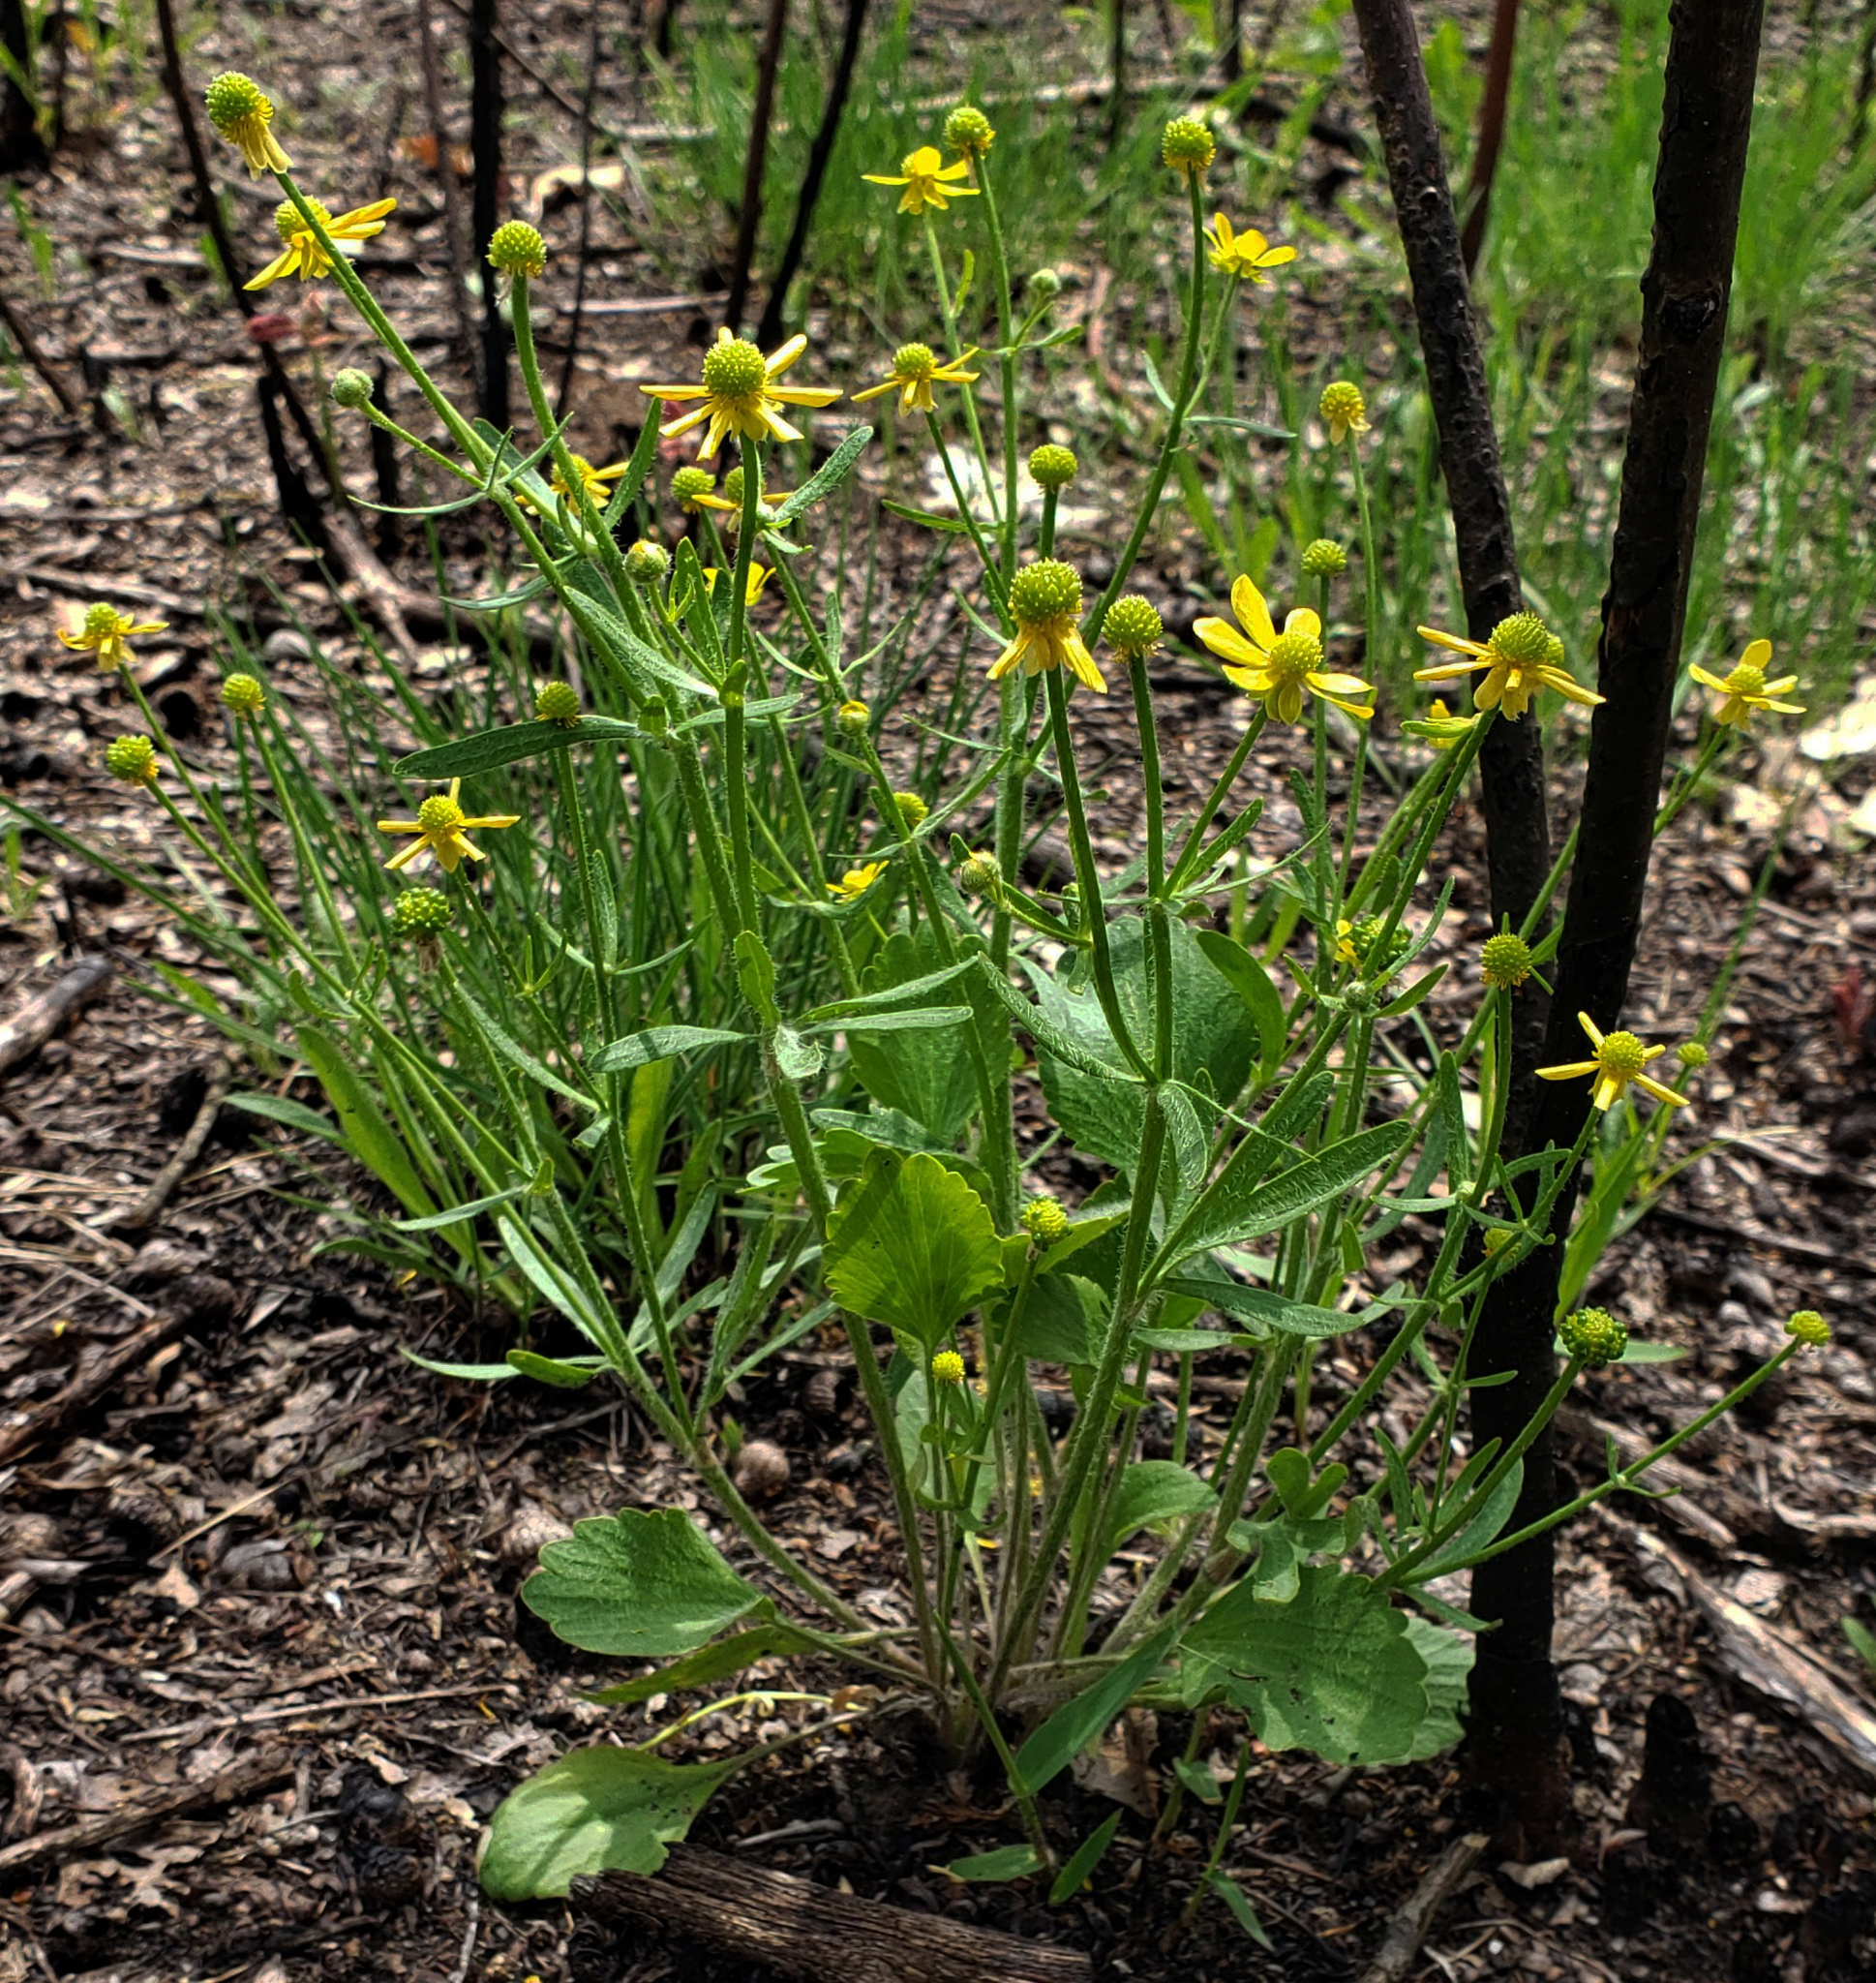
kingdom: Plantae
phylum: Tracheophyta
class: Magnoliopsida
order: Ranunculales
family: Ranunculaceae
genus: Ranunculus
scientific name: Ranunculus rhomboideus
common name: Prairie buttercup
